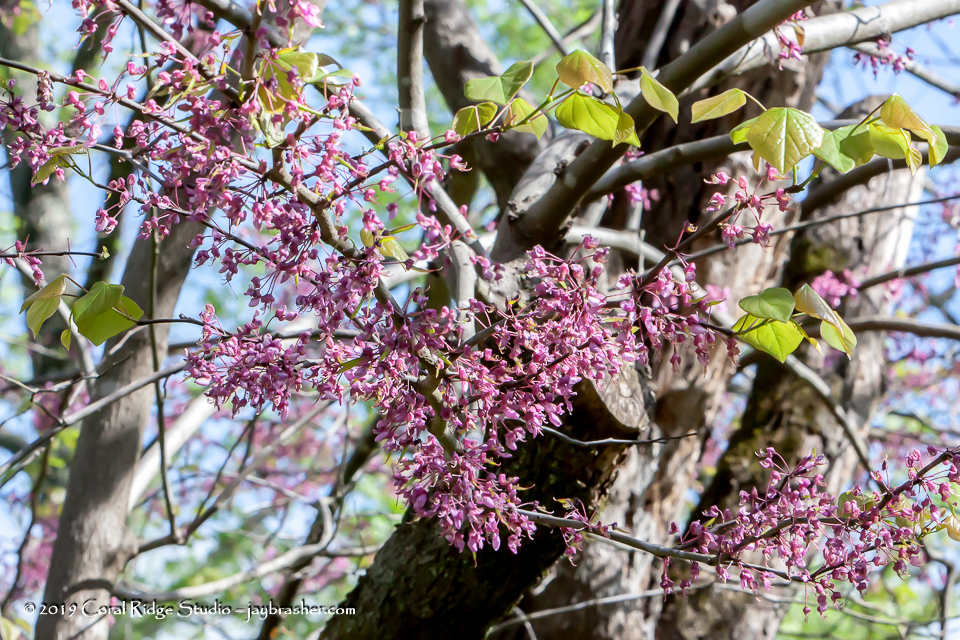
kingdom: Plantae
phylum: Tracheophyta
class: Magnoliopsida
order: Fabales
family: Fabaceae
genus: Cercis
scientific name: Cercis canadensis
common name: Eastern redbud
